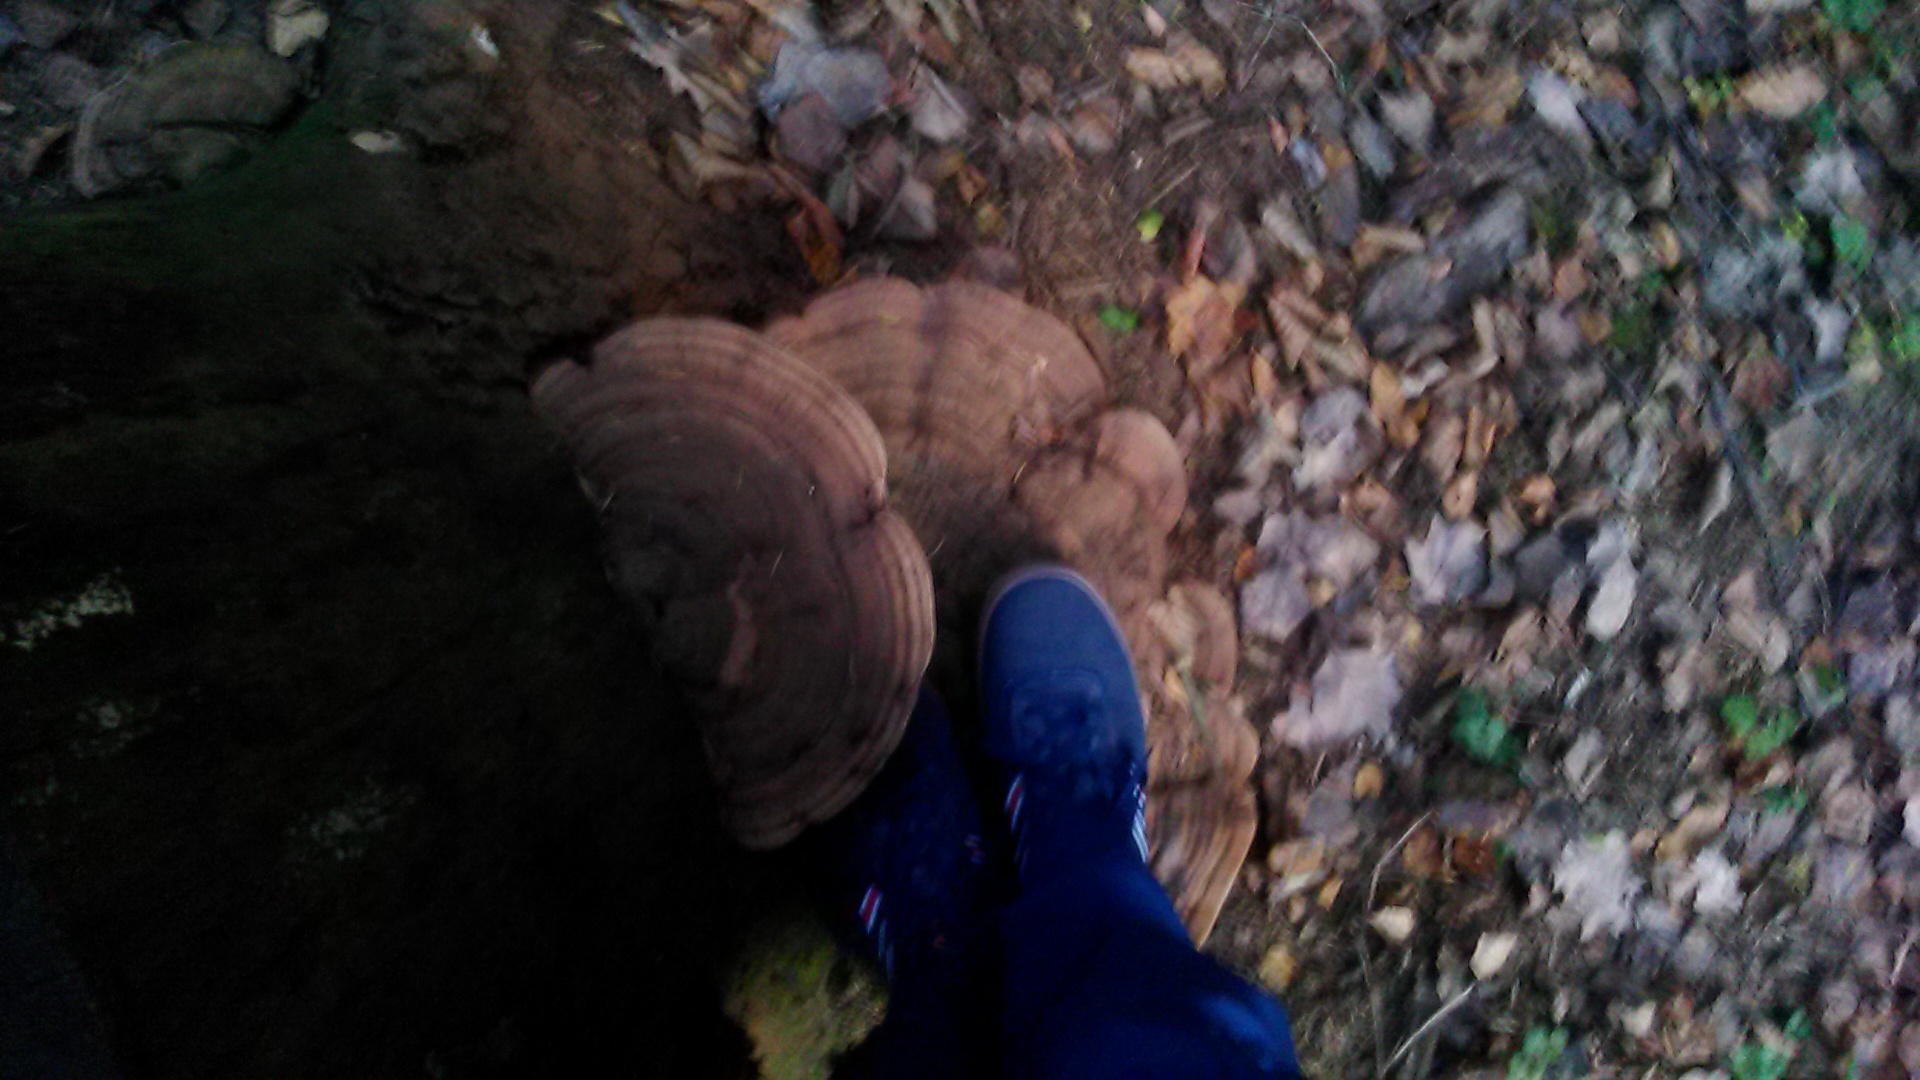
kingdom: Fungi
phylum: Basidiomycota
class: Agaricomycetes
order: Polyporales
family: Polyporaceae
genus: Ganoderma
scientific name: Ganoderma applanatum
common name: Artist's bracket
